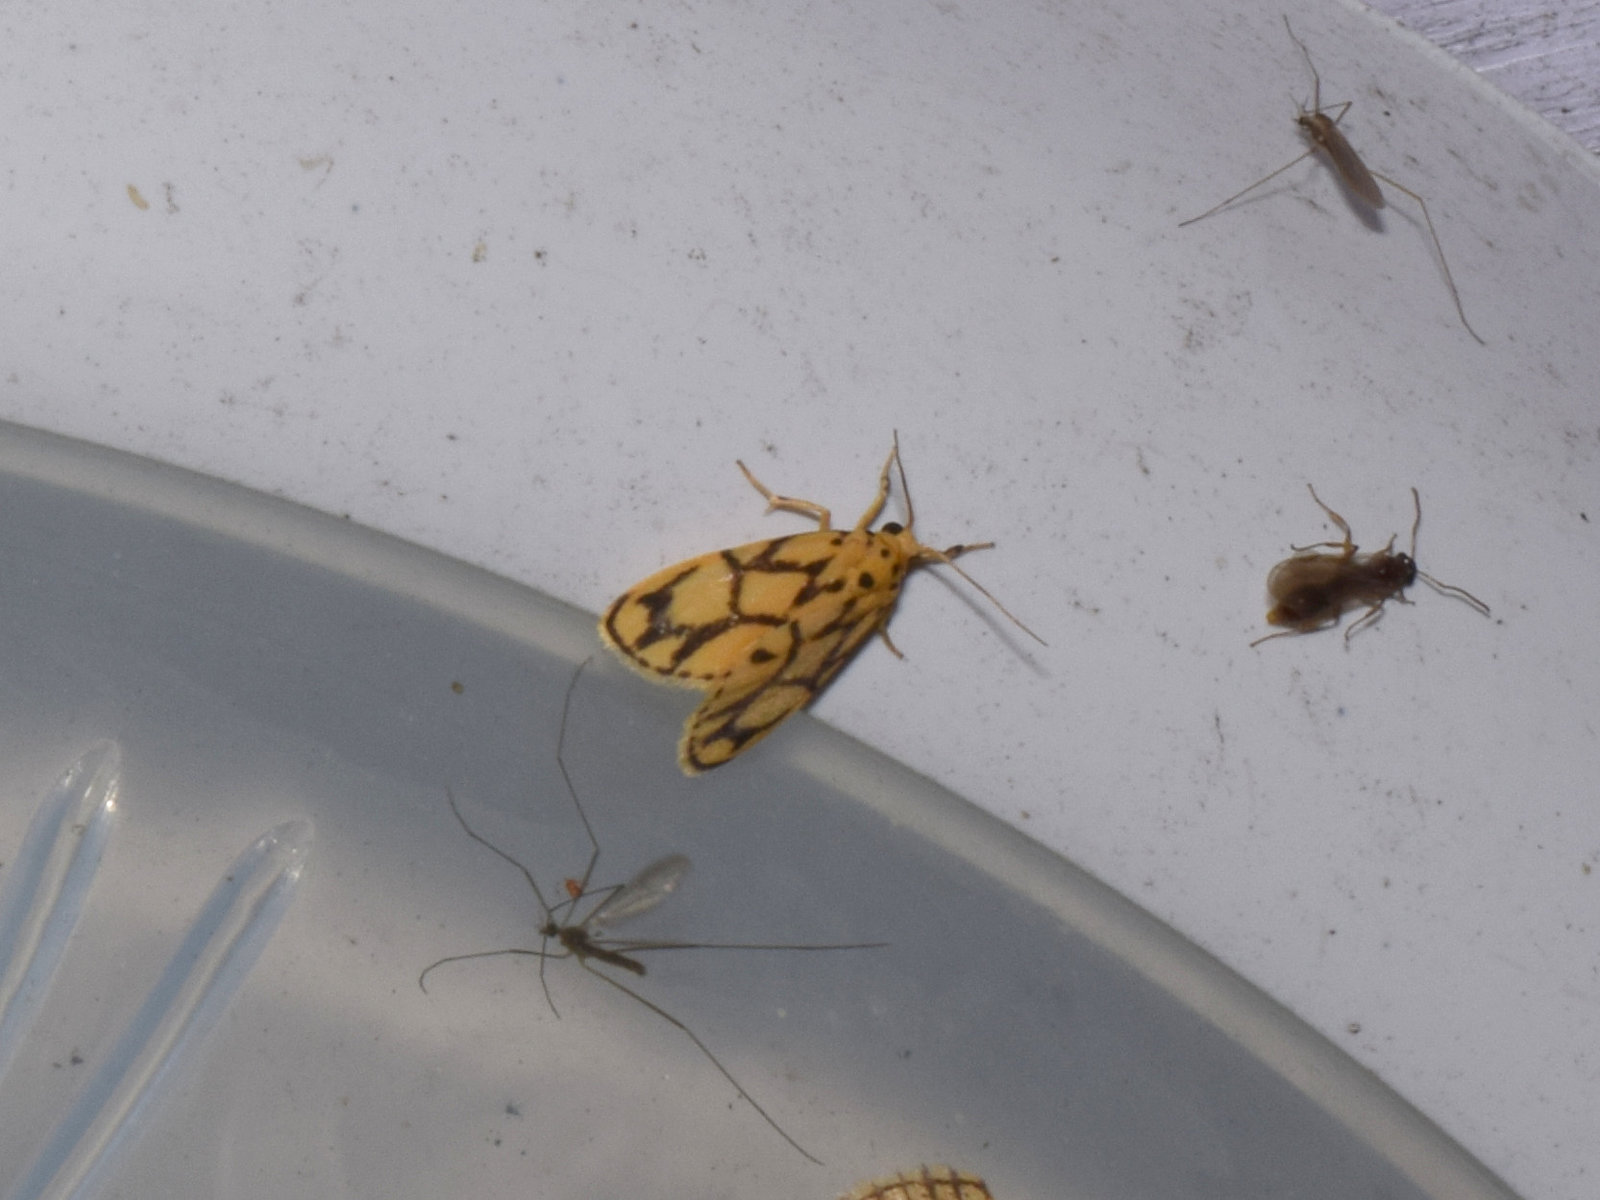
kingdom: Animalia
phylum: Arthropoda
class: Insecta
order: Lepidoptera
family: Erebidae
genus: Miltochrista
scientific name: Miltochrista terminospota
